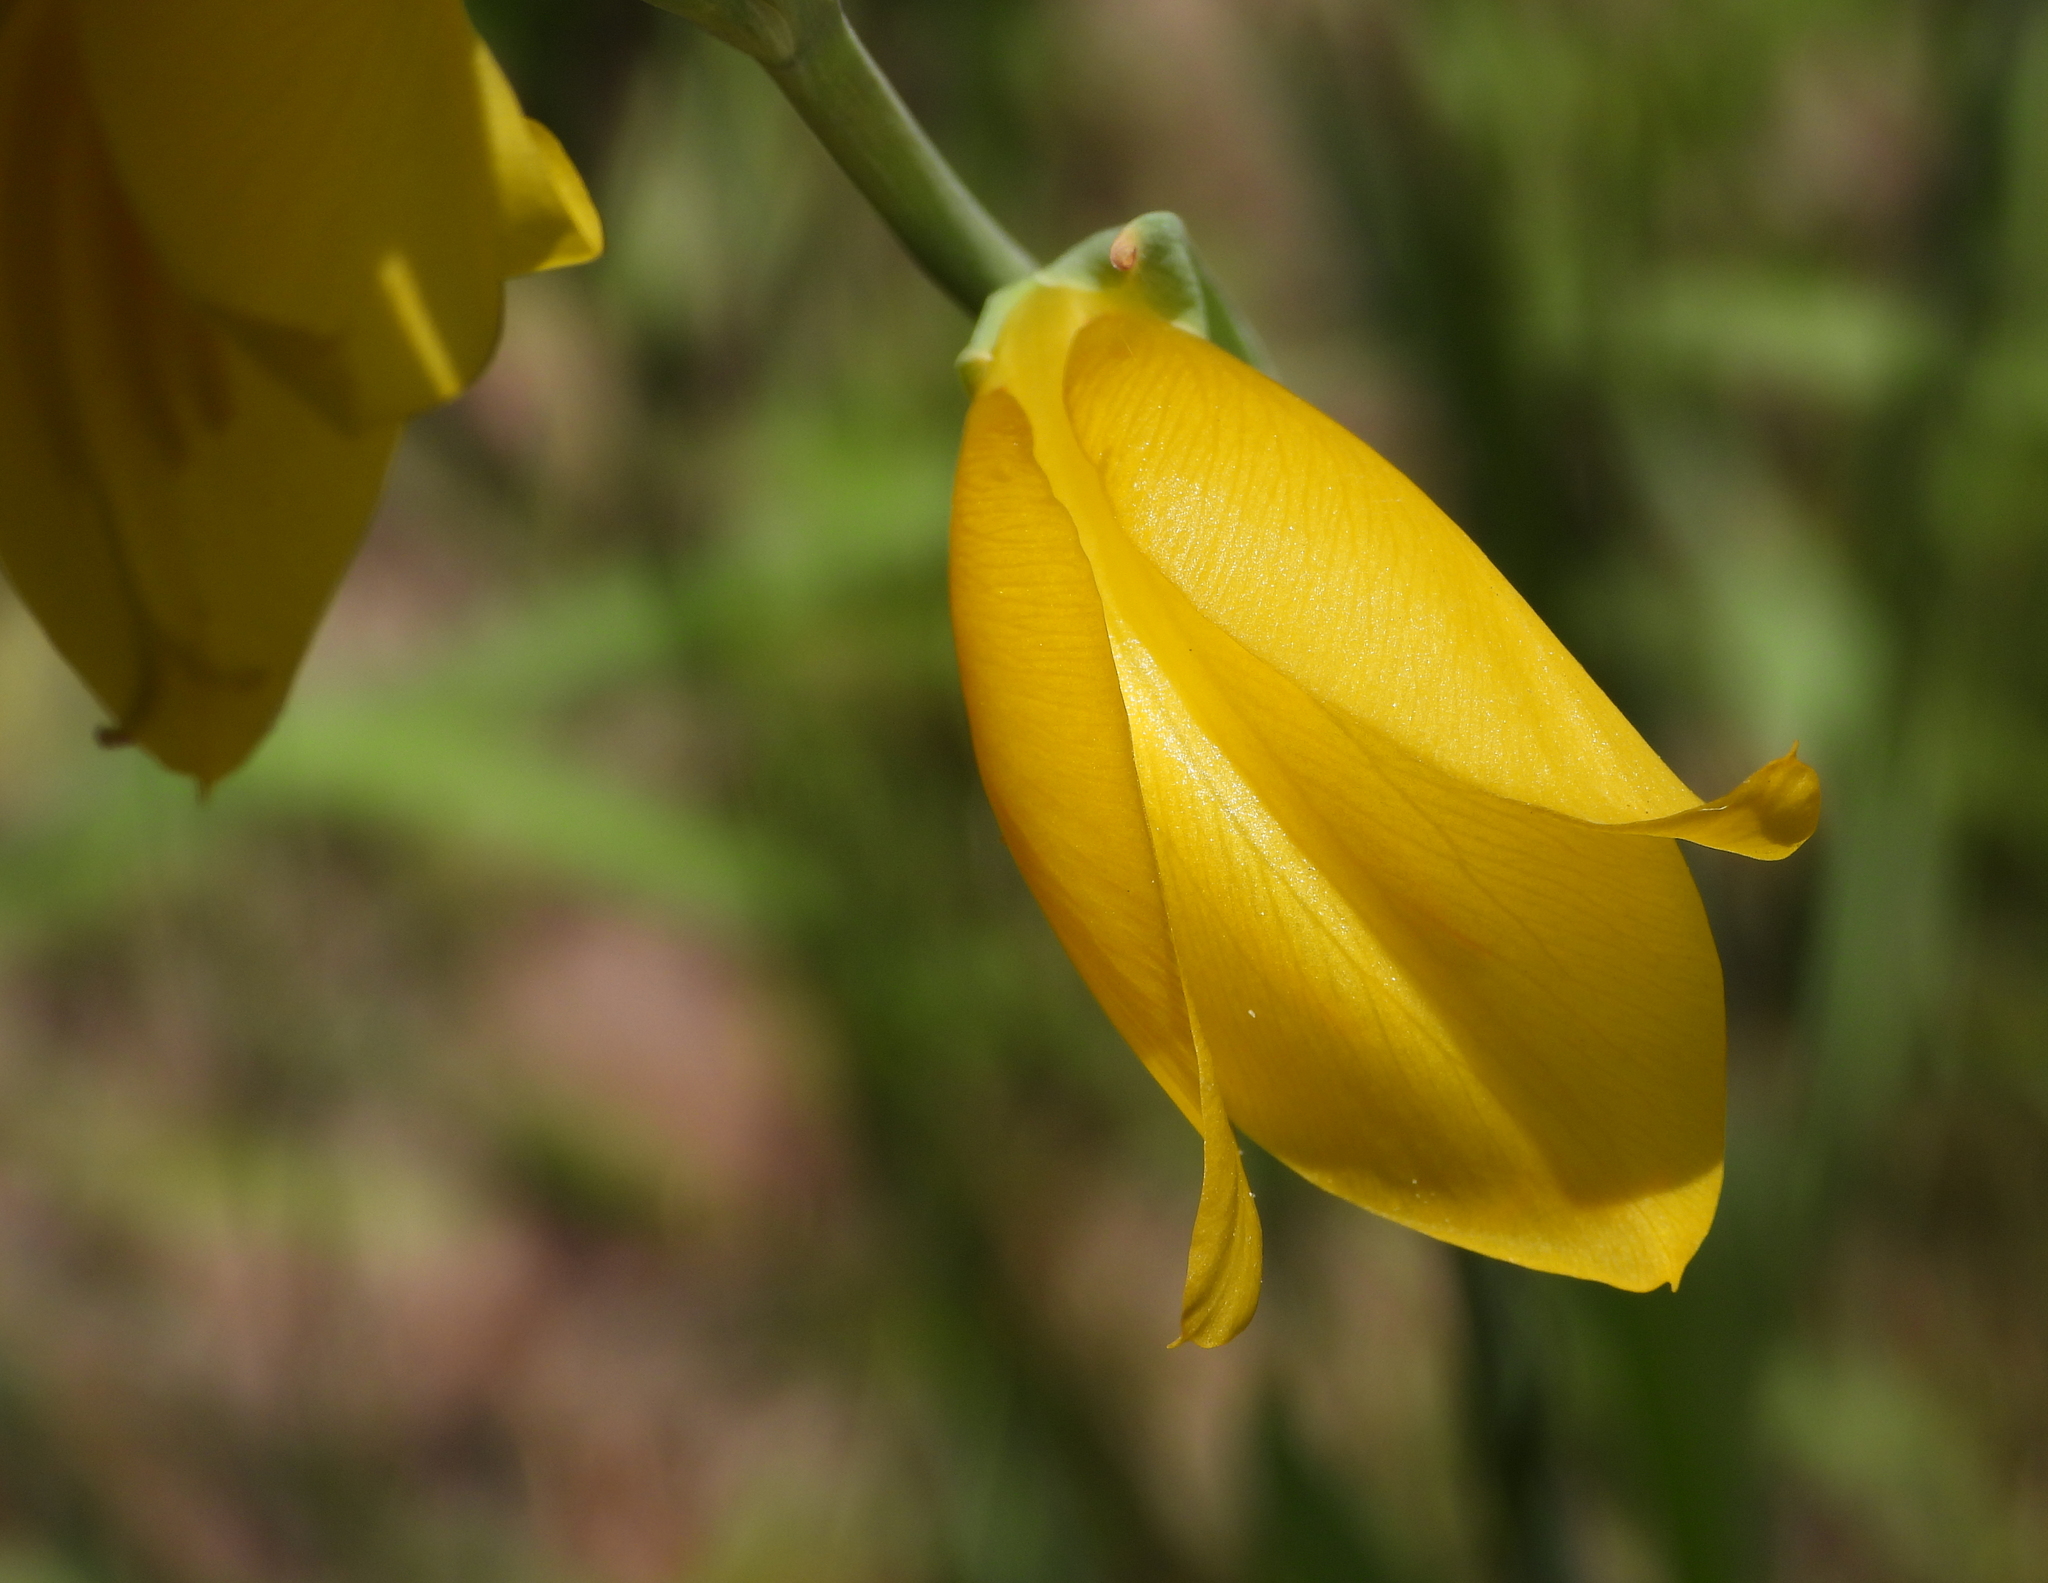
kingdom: Plantae
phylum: Tracheophyta
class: Liliopsida
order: Asparagales
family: Iridaceae
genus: Gladiolus
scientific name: Gladiolus dalenii
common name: Cornflag
